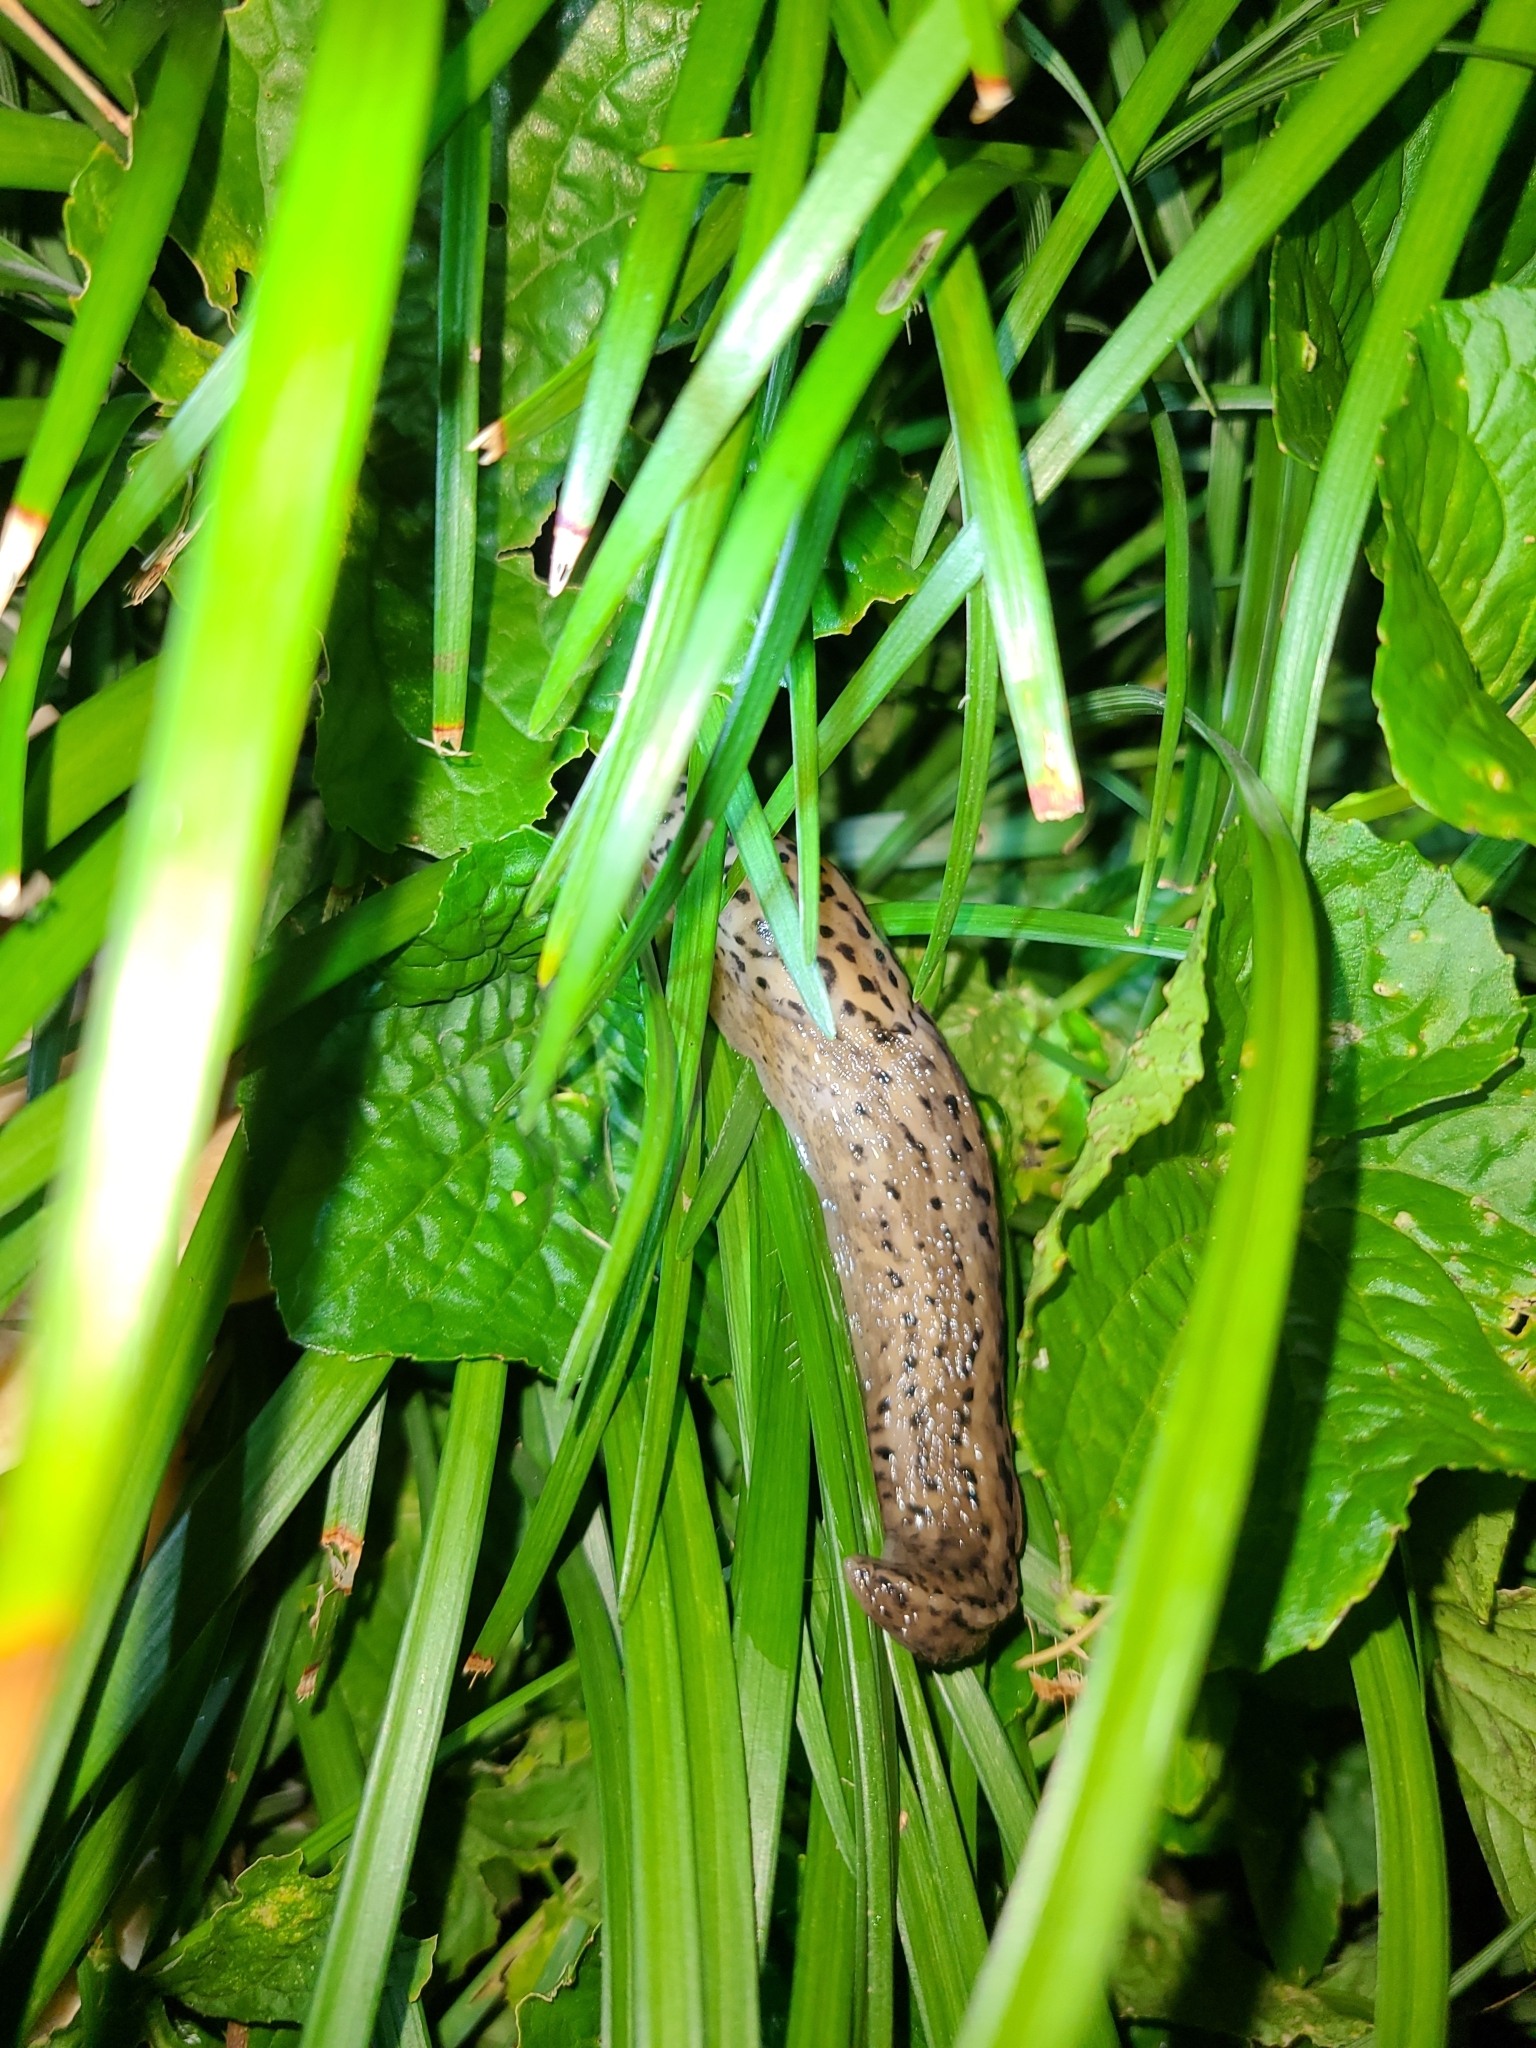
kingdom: Animalia
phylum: Mollusca
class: Gastropoda
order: Stylommatophora
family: Limacidae
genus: Limax
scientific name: Limax maximus
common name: Great grey slug
